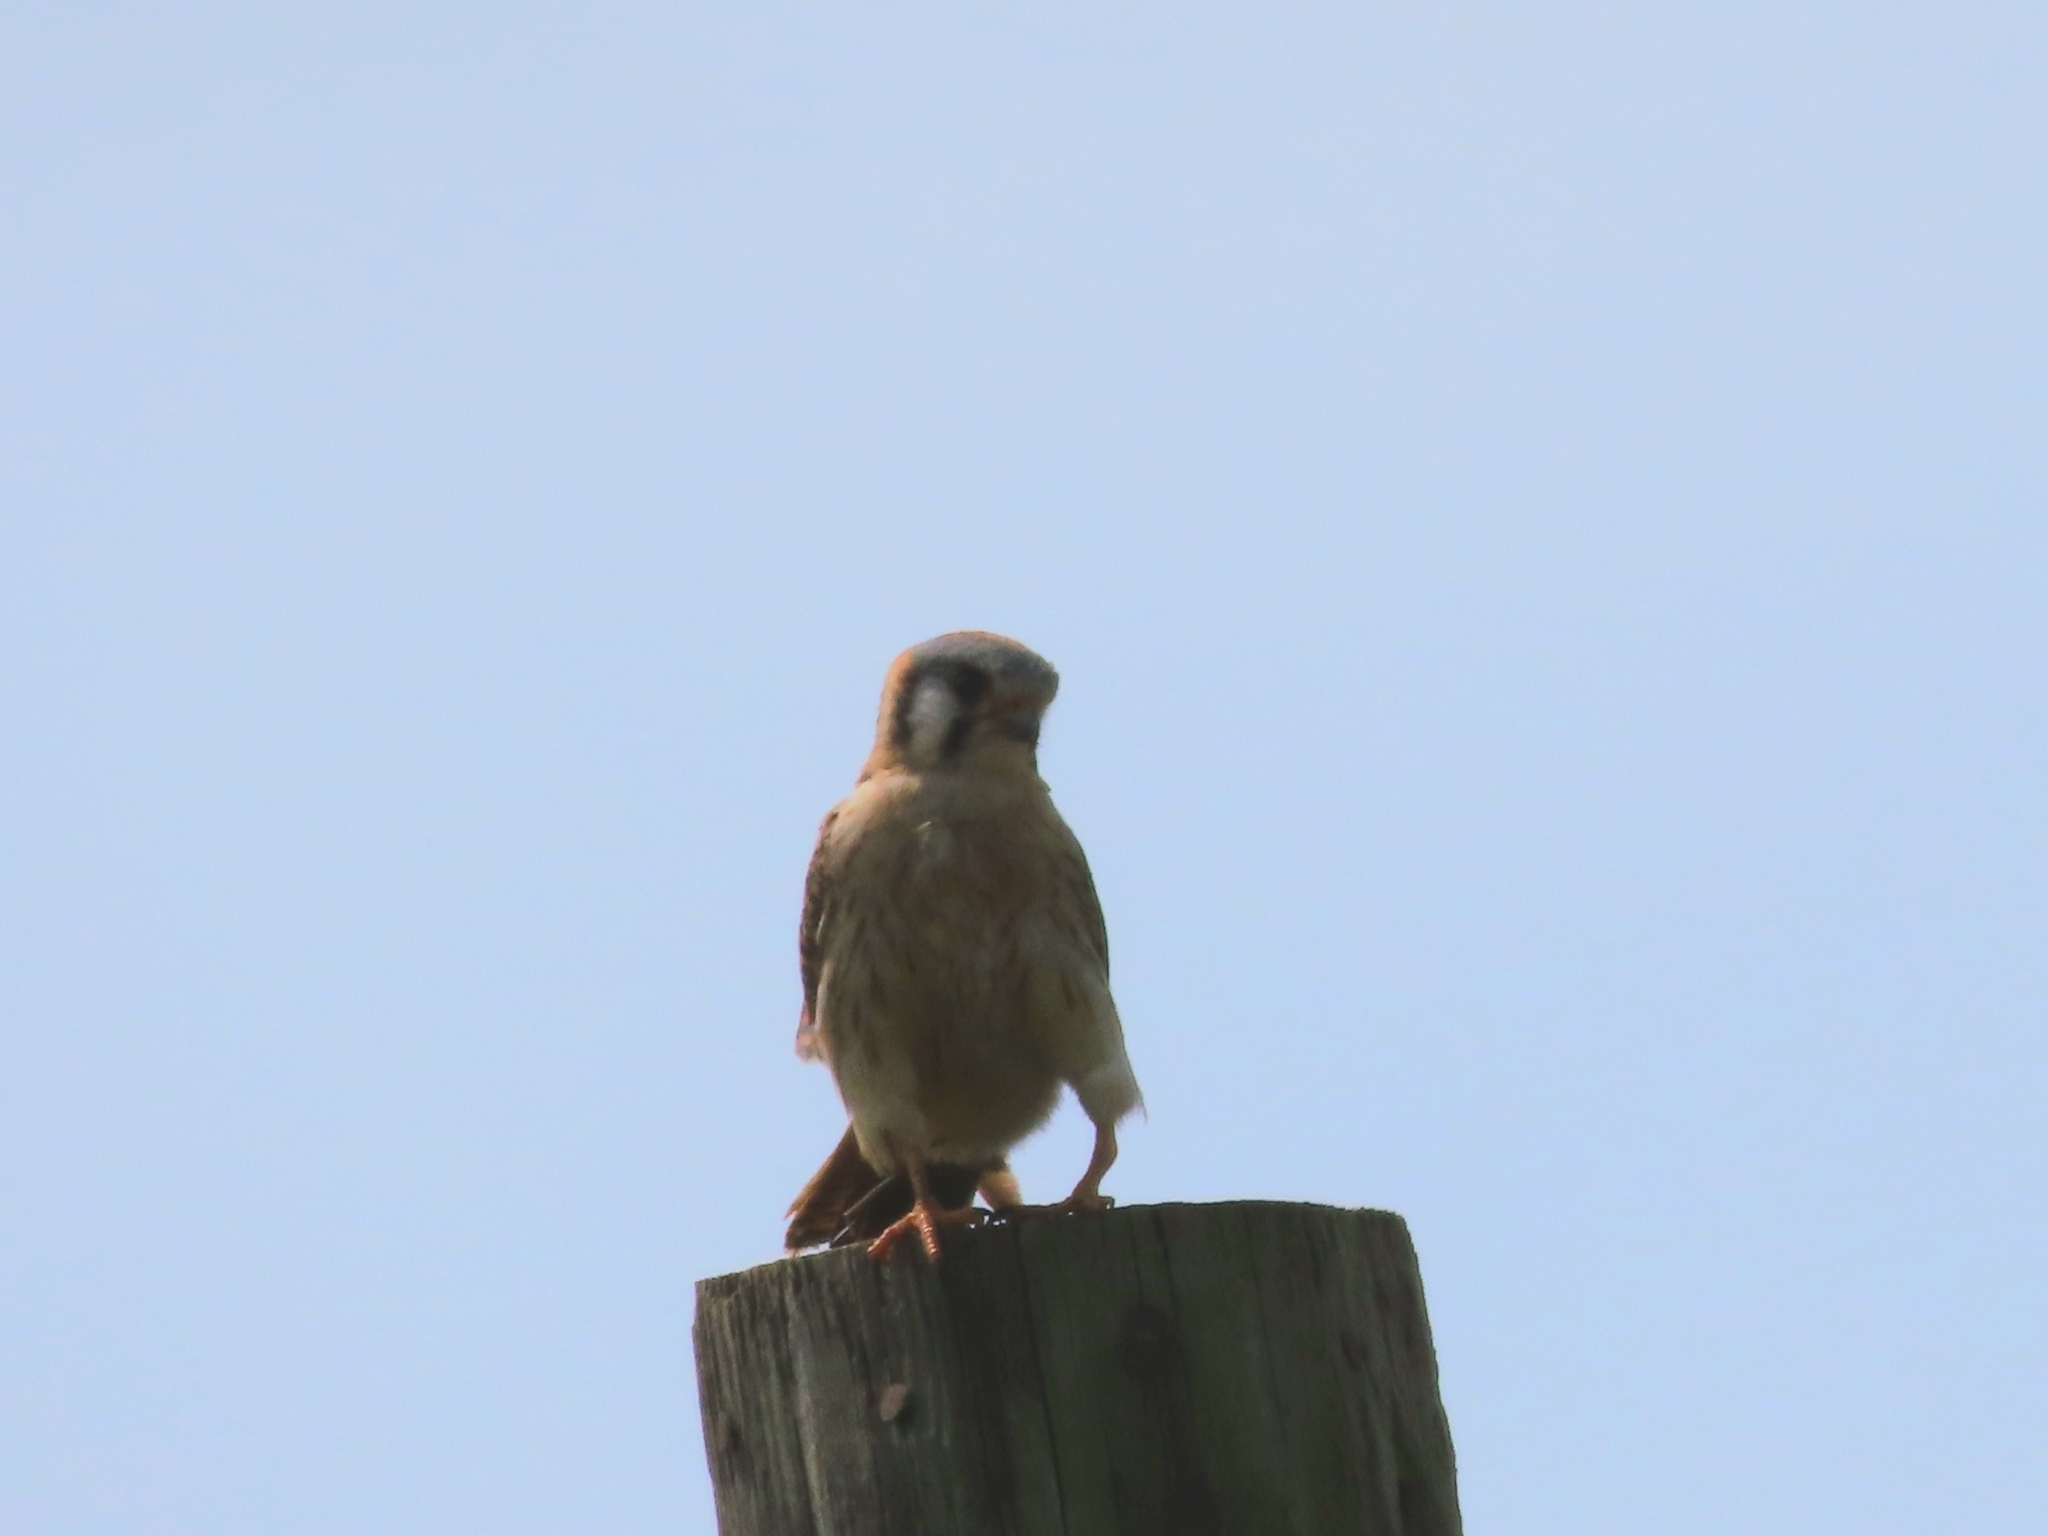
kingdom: Animalia
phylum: Chordata
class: Aves
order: Falconiformes
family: Falconidae
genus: Falco
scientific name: Falco sparverius
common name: American kestrel
